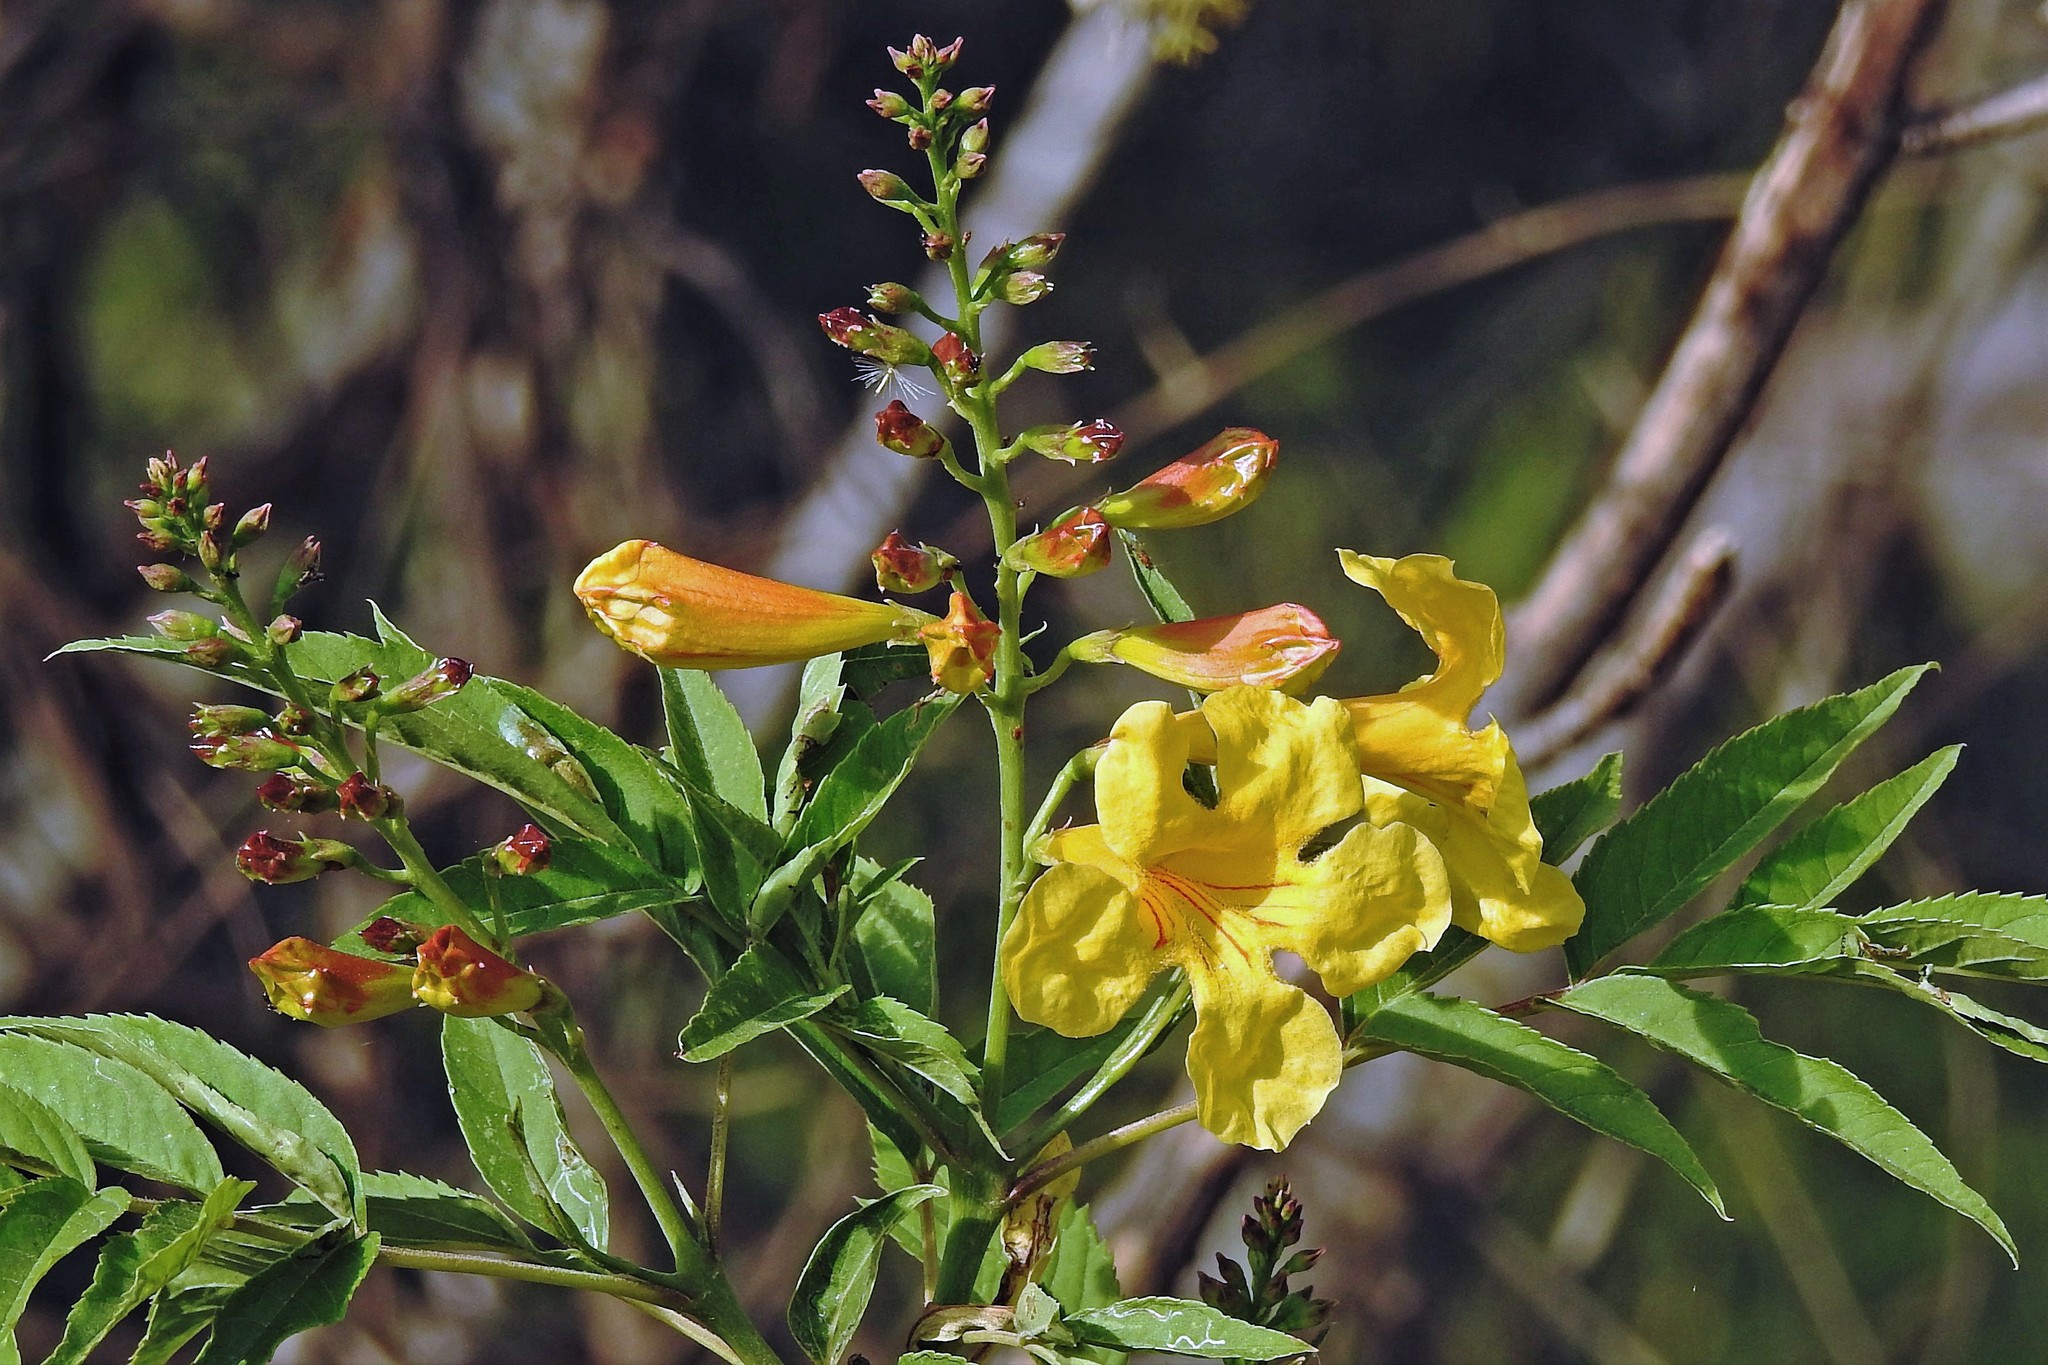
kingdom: Plantae
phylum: Tracheophyta
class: Magnoliopsida
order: Lamiales
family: Bignoniaceae
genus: Tecoma
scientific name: Tecoma stans
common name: Yellow trumpetbush
